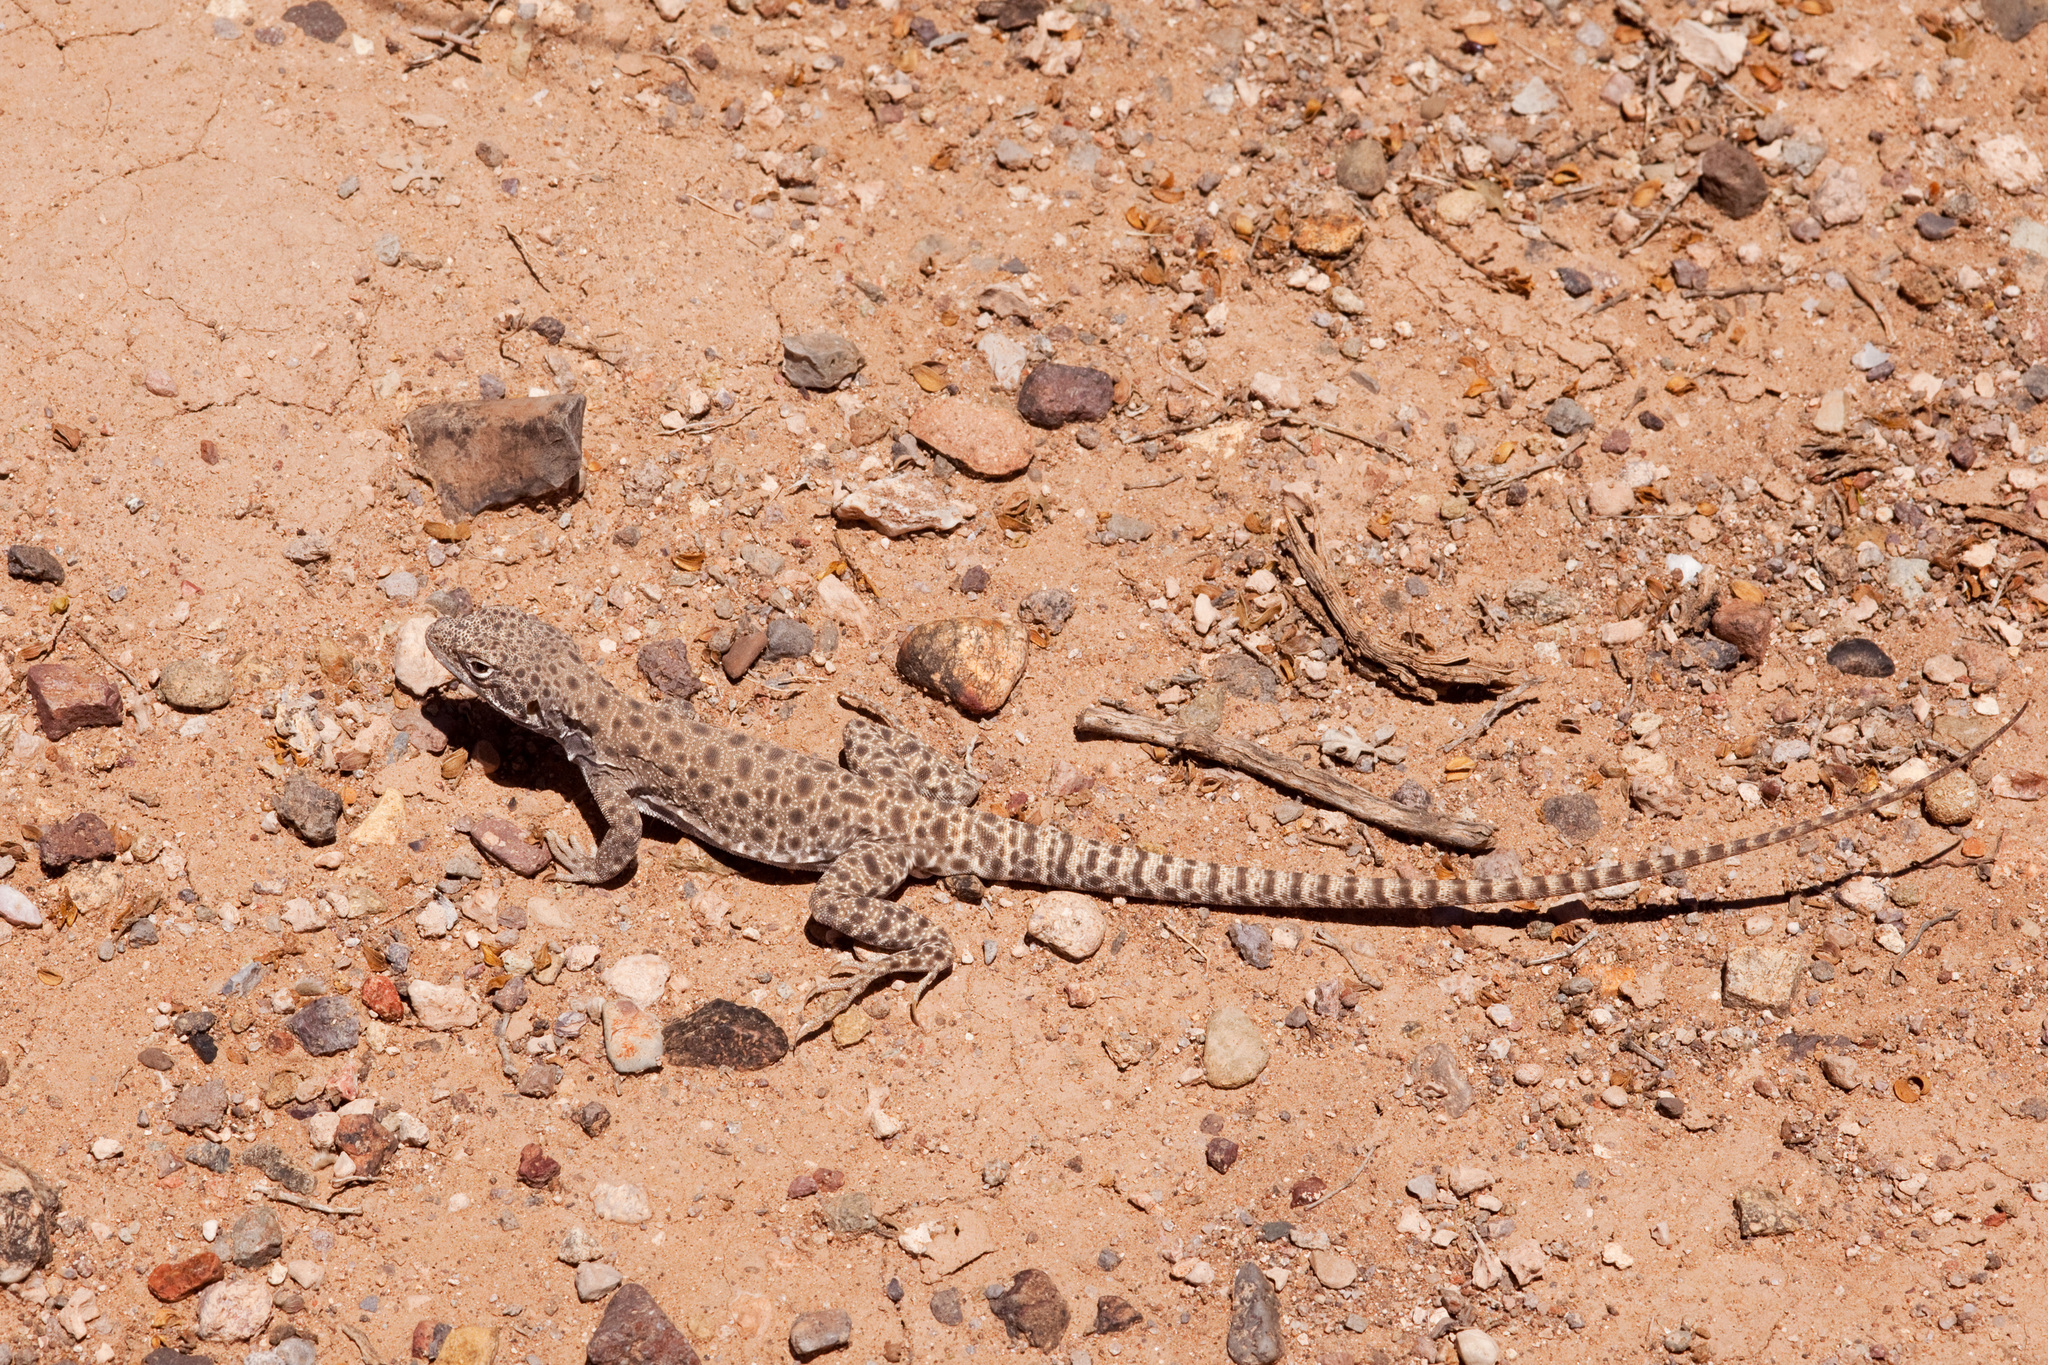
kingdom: Animalia
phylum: Chordata
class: Squamata
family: Crotaphytidae
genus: Gambelia
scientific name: Gambelia wislizenii
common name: Longnose leopard lizard
